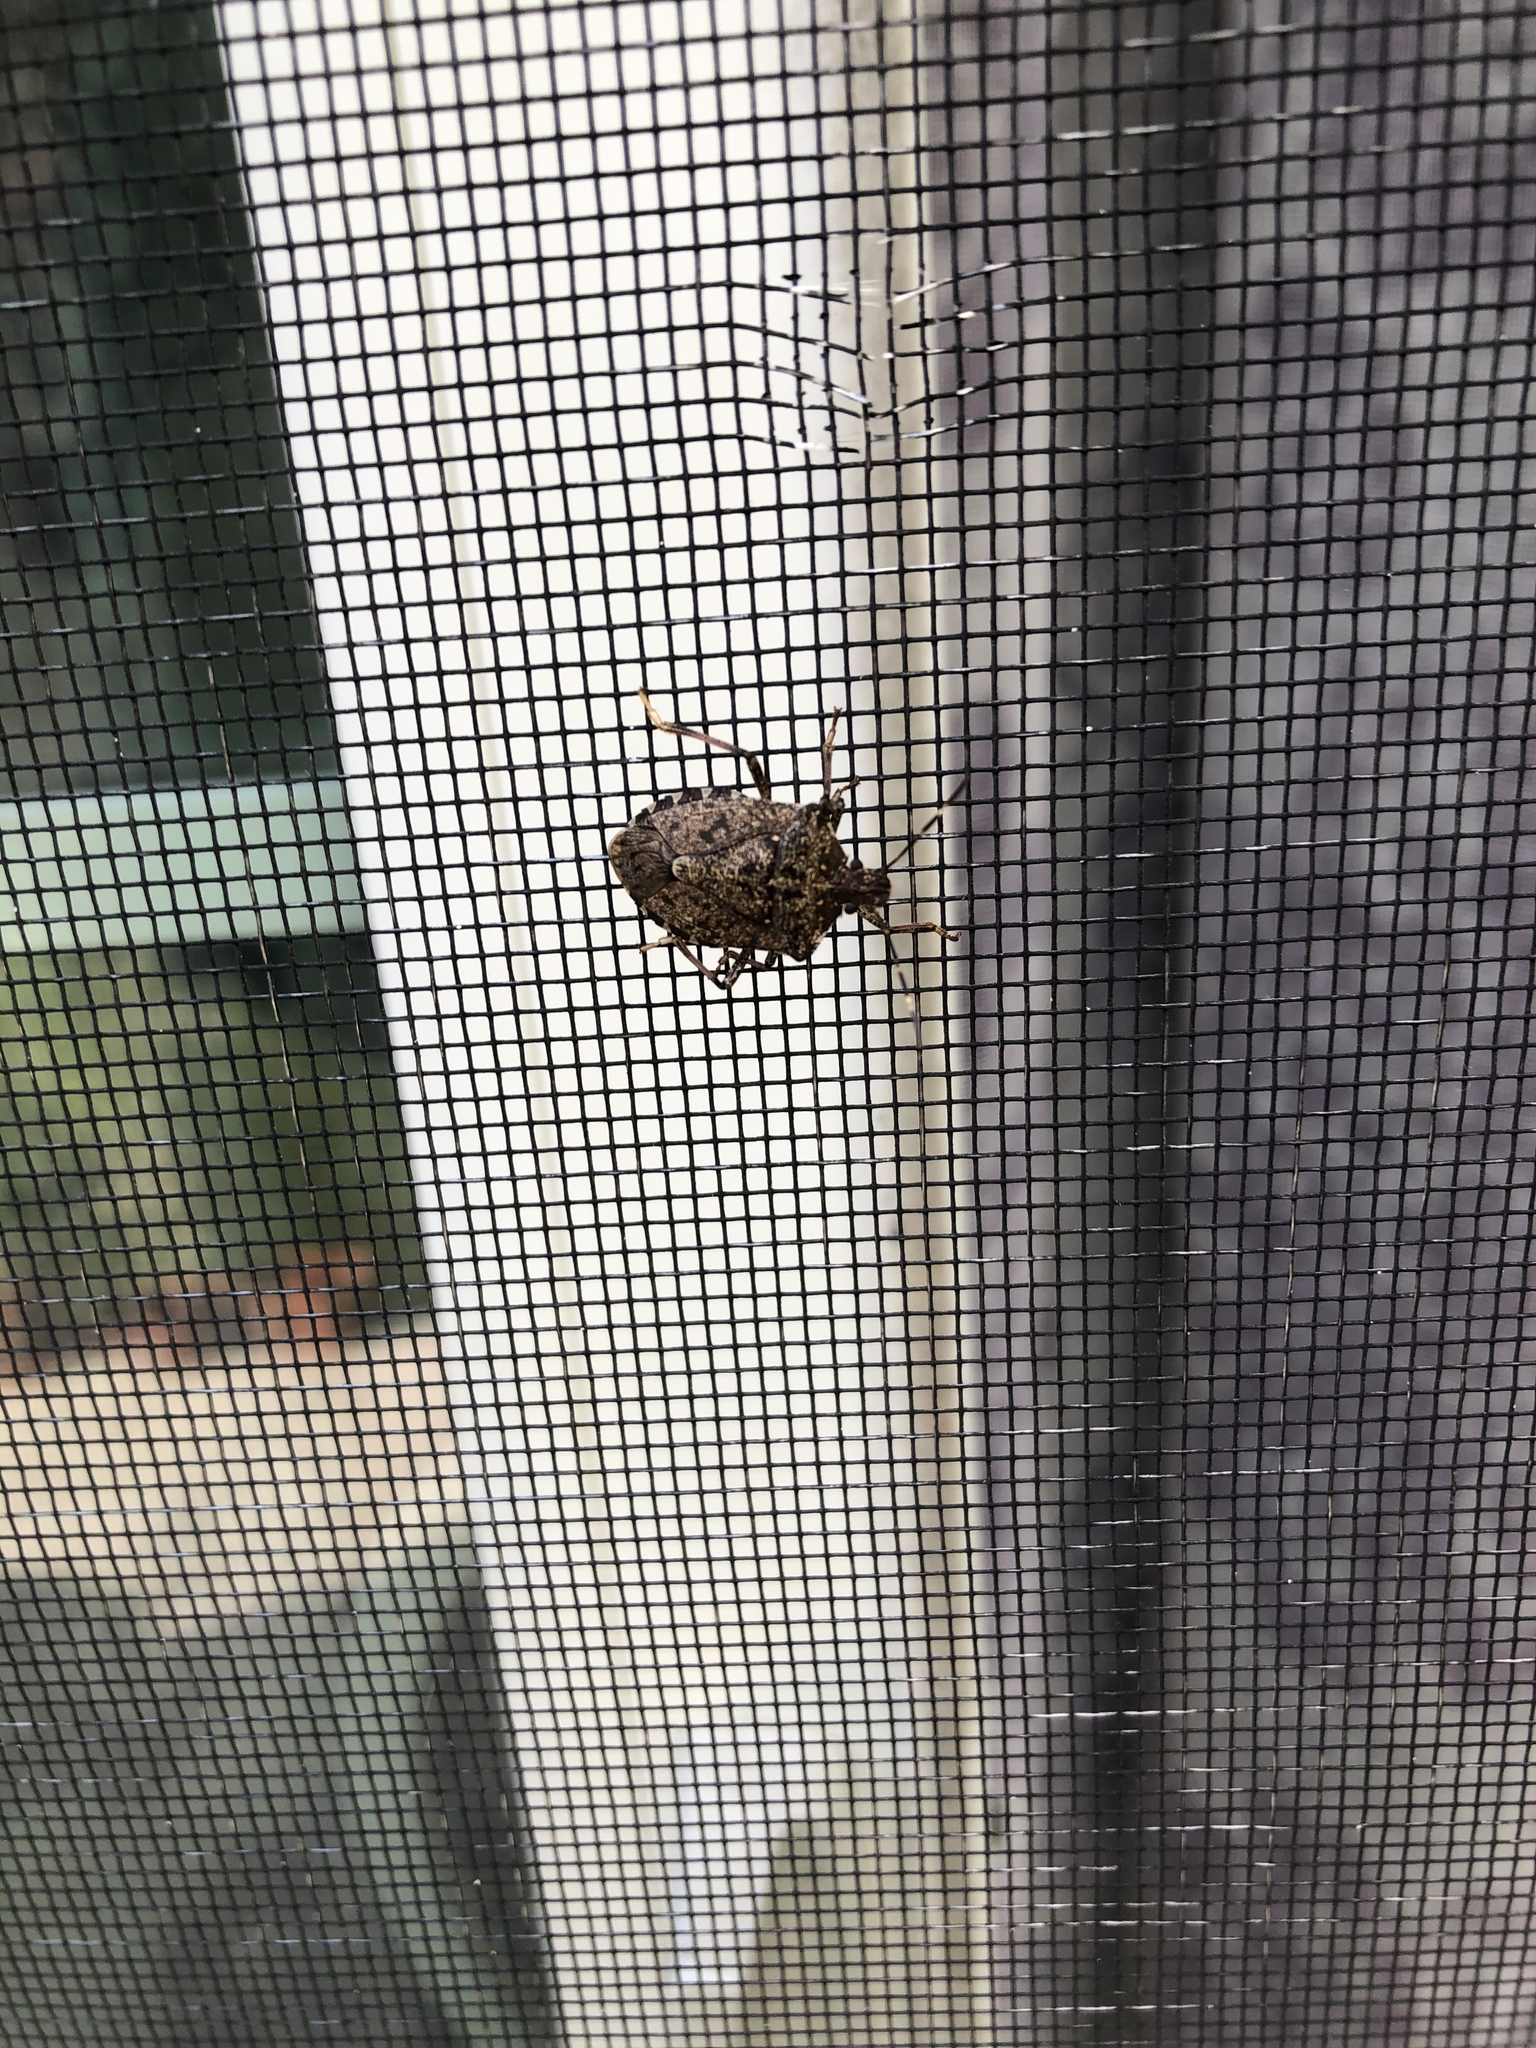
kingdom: Animalia
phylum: Arthropoda
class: Insecta
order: Hemiptera
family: Pentatomidae
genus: Halyomorpha
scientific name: Halyomorpha halys
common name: Brown marmorated stink bug
